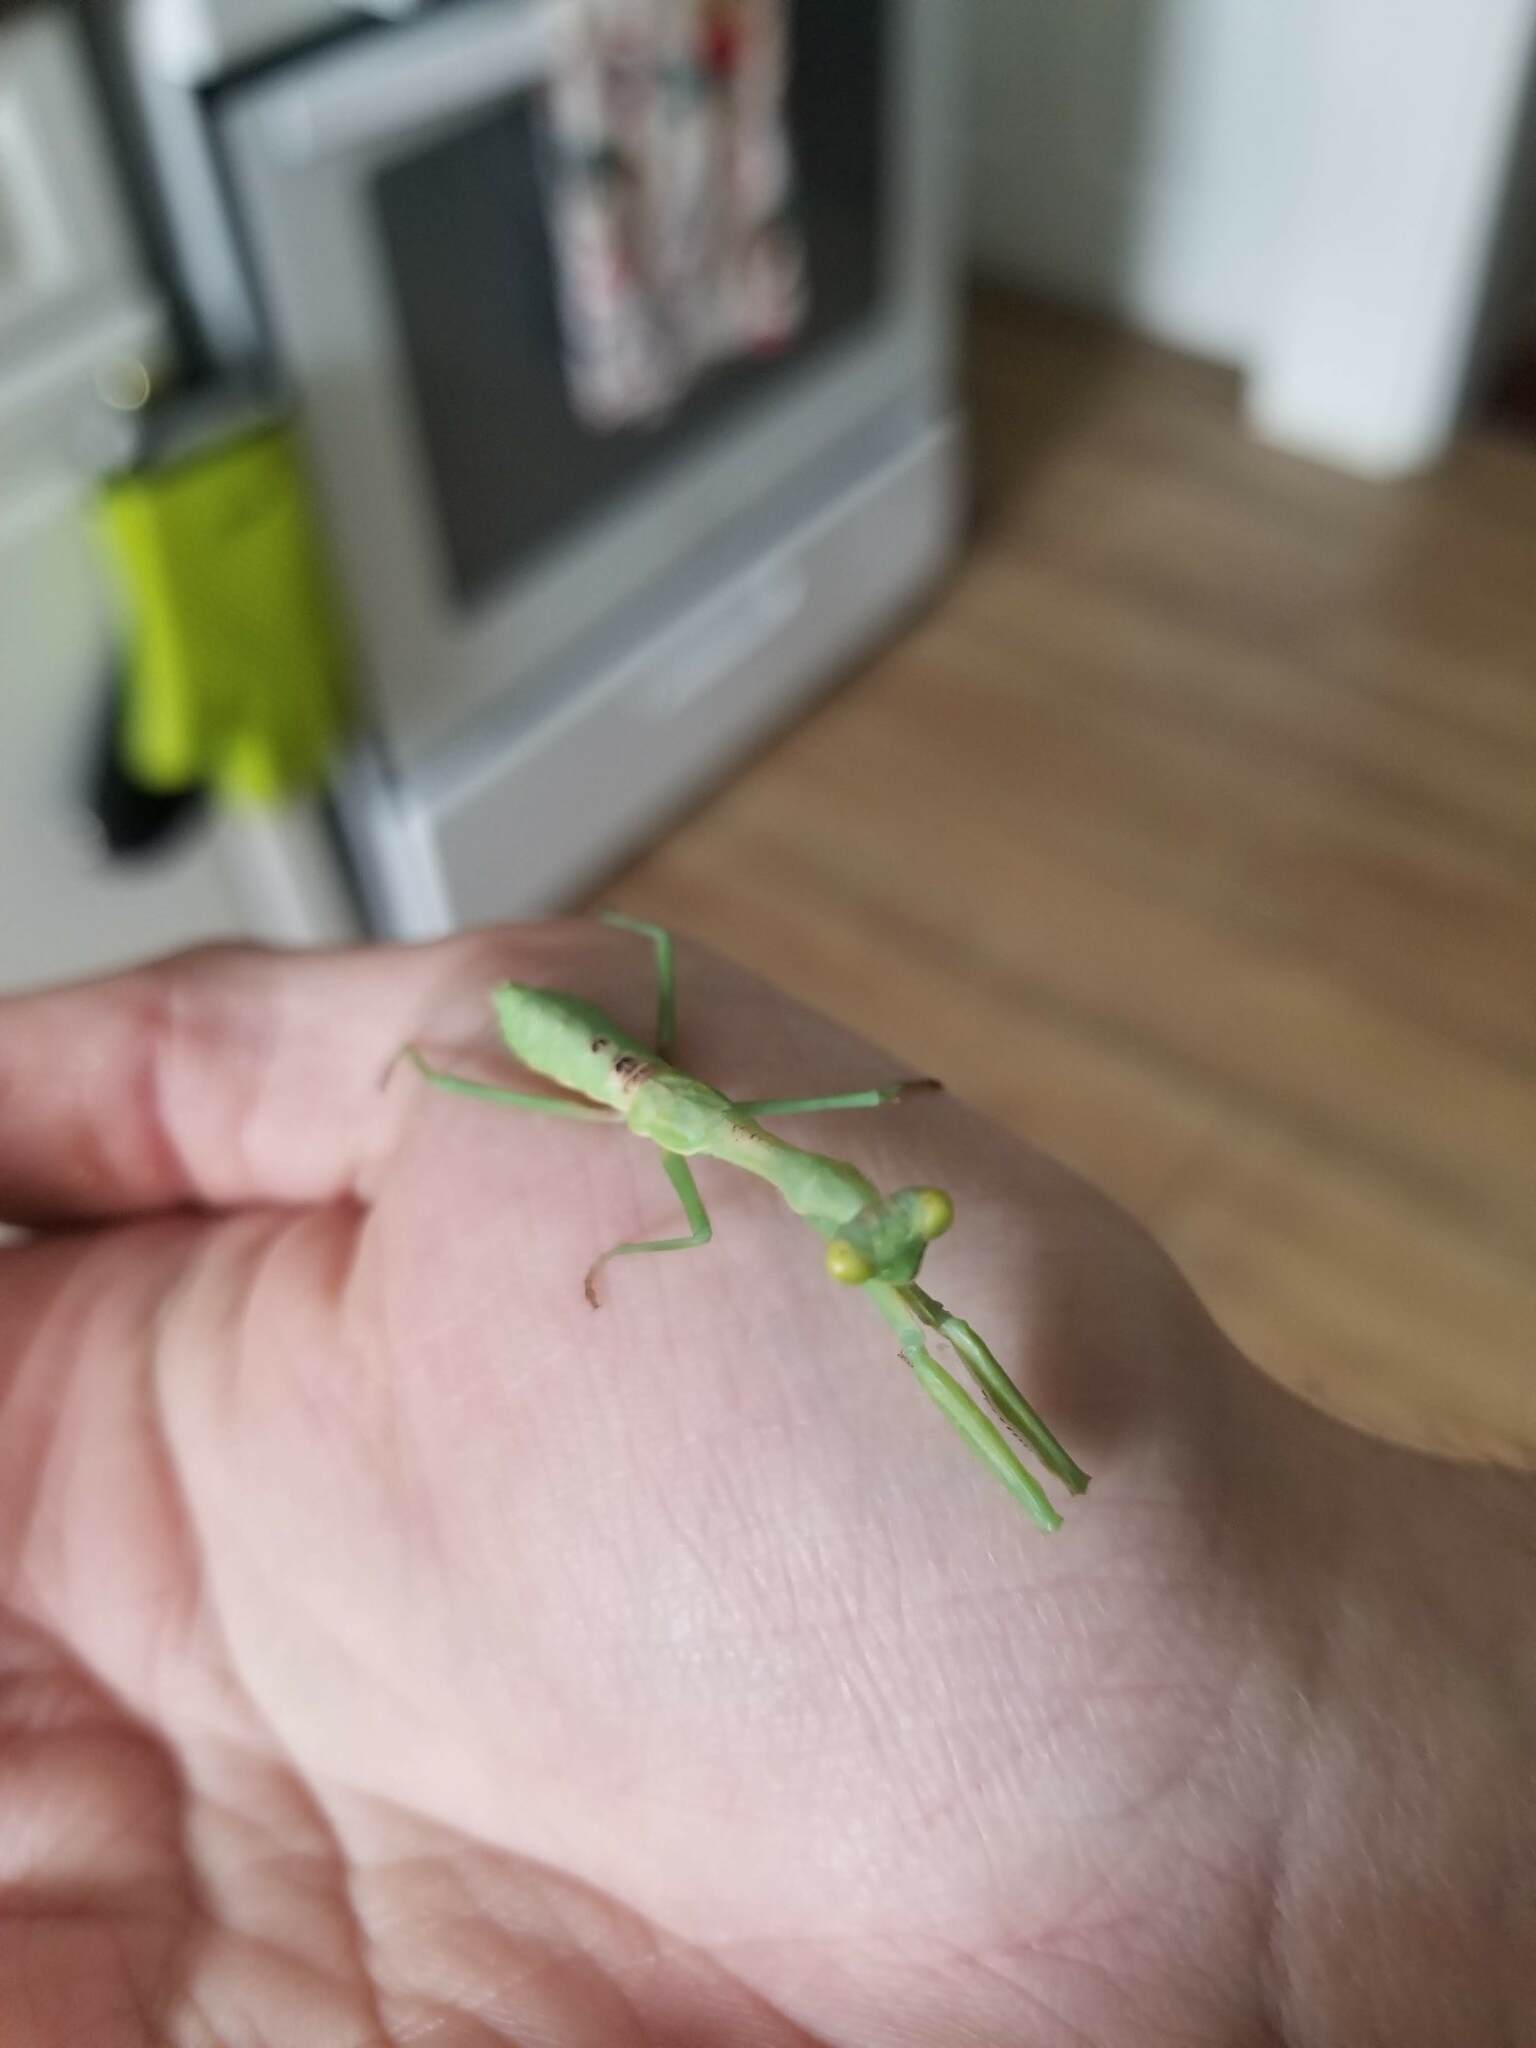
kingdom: Animalia
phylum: Arthropoda
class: Insecta
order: Mantodea
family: Mantidae
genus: Stagmomantis
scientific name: Stagmomantis carolina
